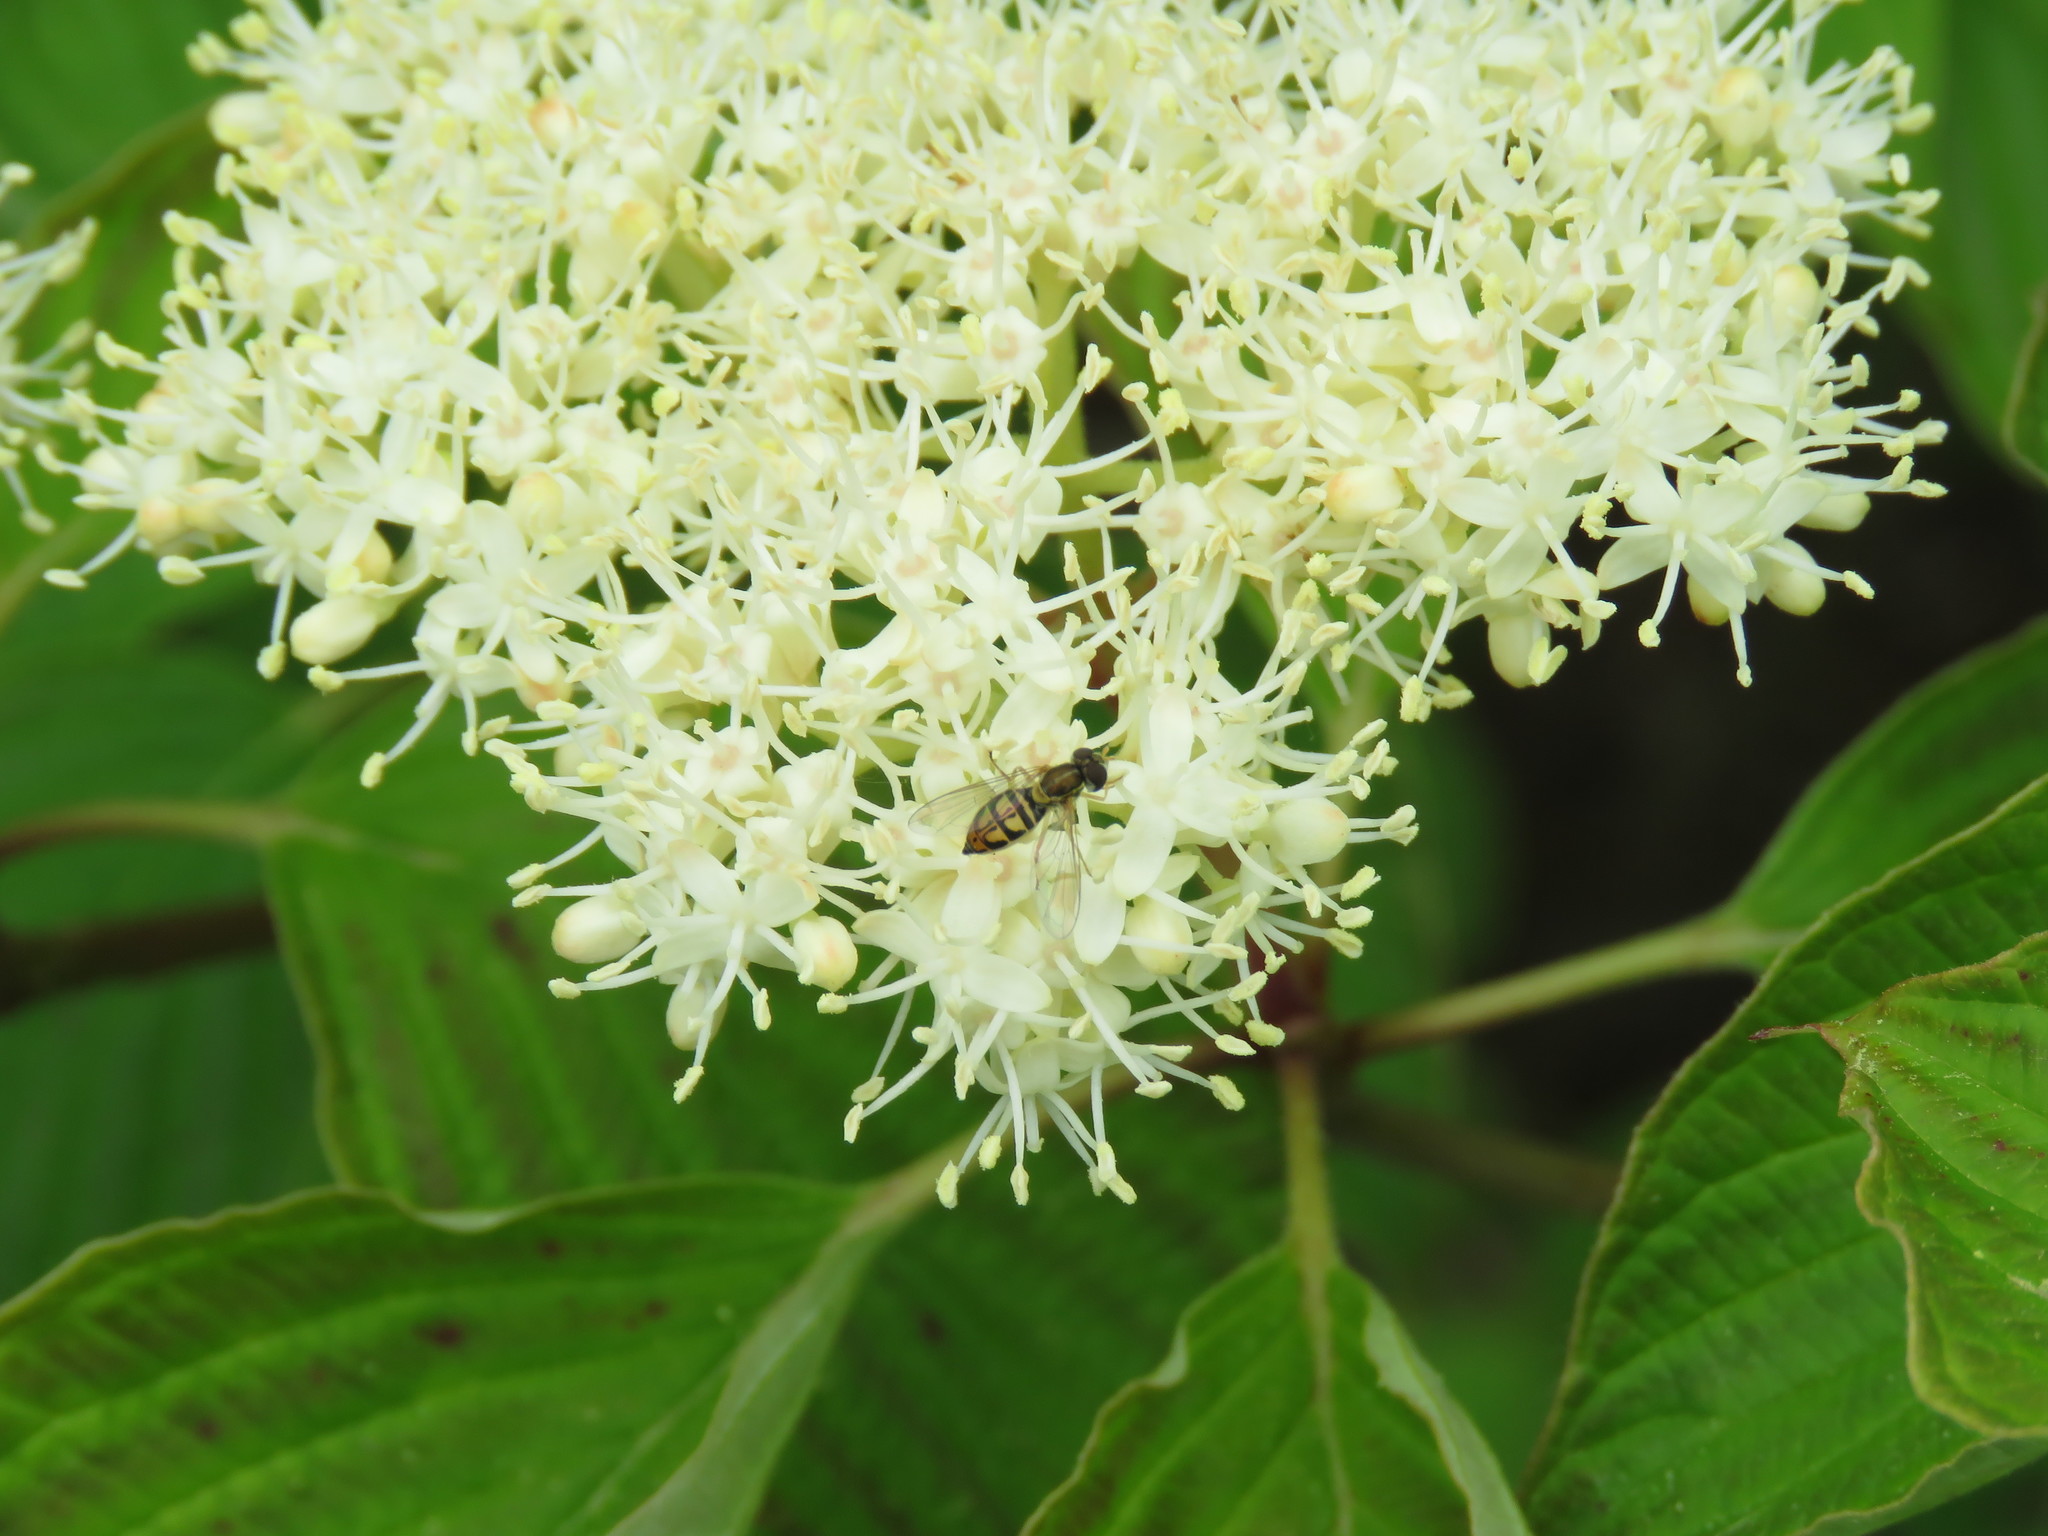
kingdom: Animalia
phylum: Arthropoda
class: Insecta
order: Diptera
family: Syrphidae
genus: Toxomerus
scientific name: Toxomerus marginatus
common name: Syrphid fly
